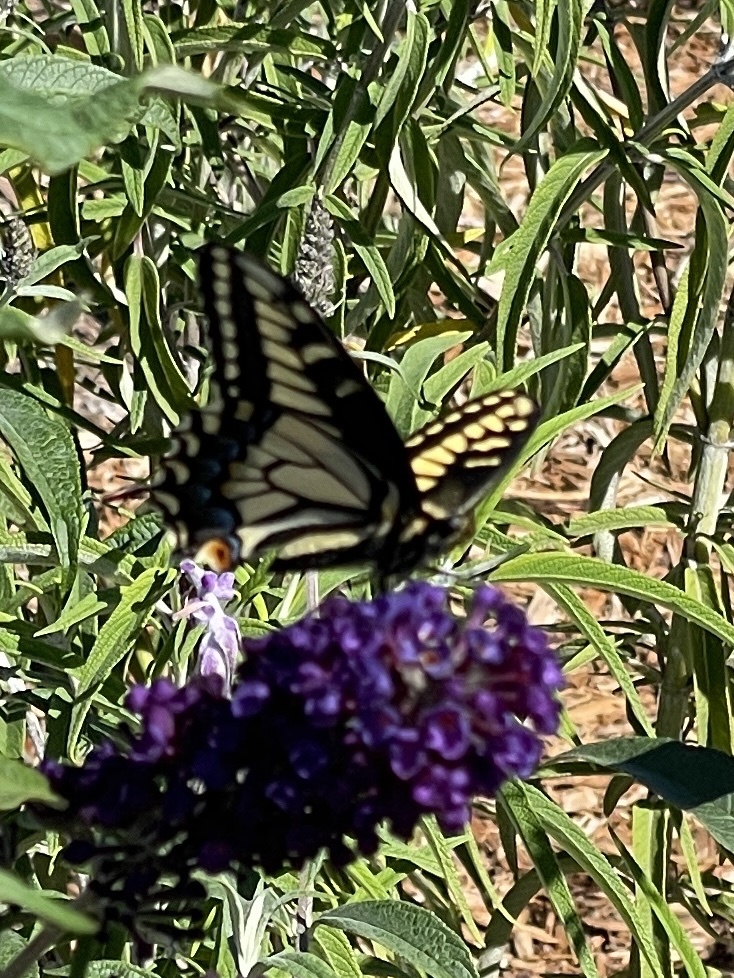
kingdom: Animalia
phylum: Arthropoda
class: Insecta
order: Lepidoptera
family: Papilionidae
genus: Papilio
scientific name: Papilio zelicaon
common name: Anise swallowtail
